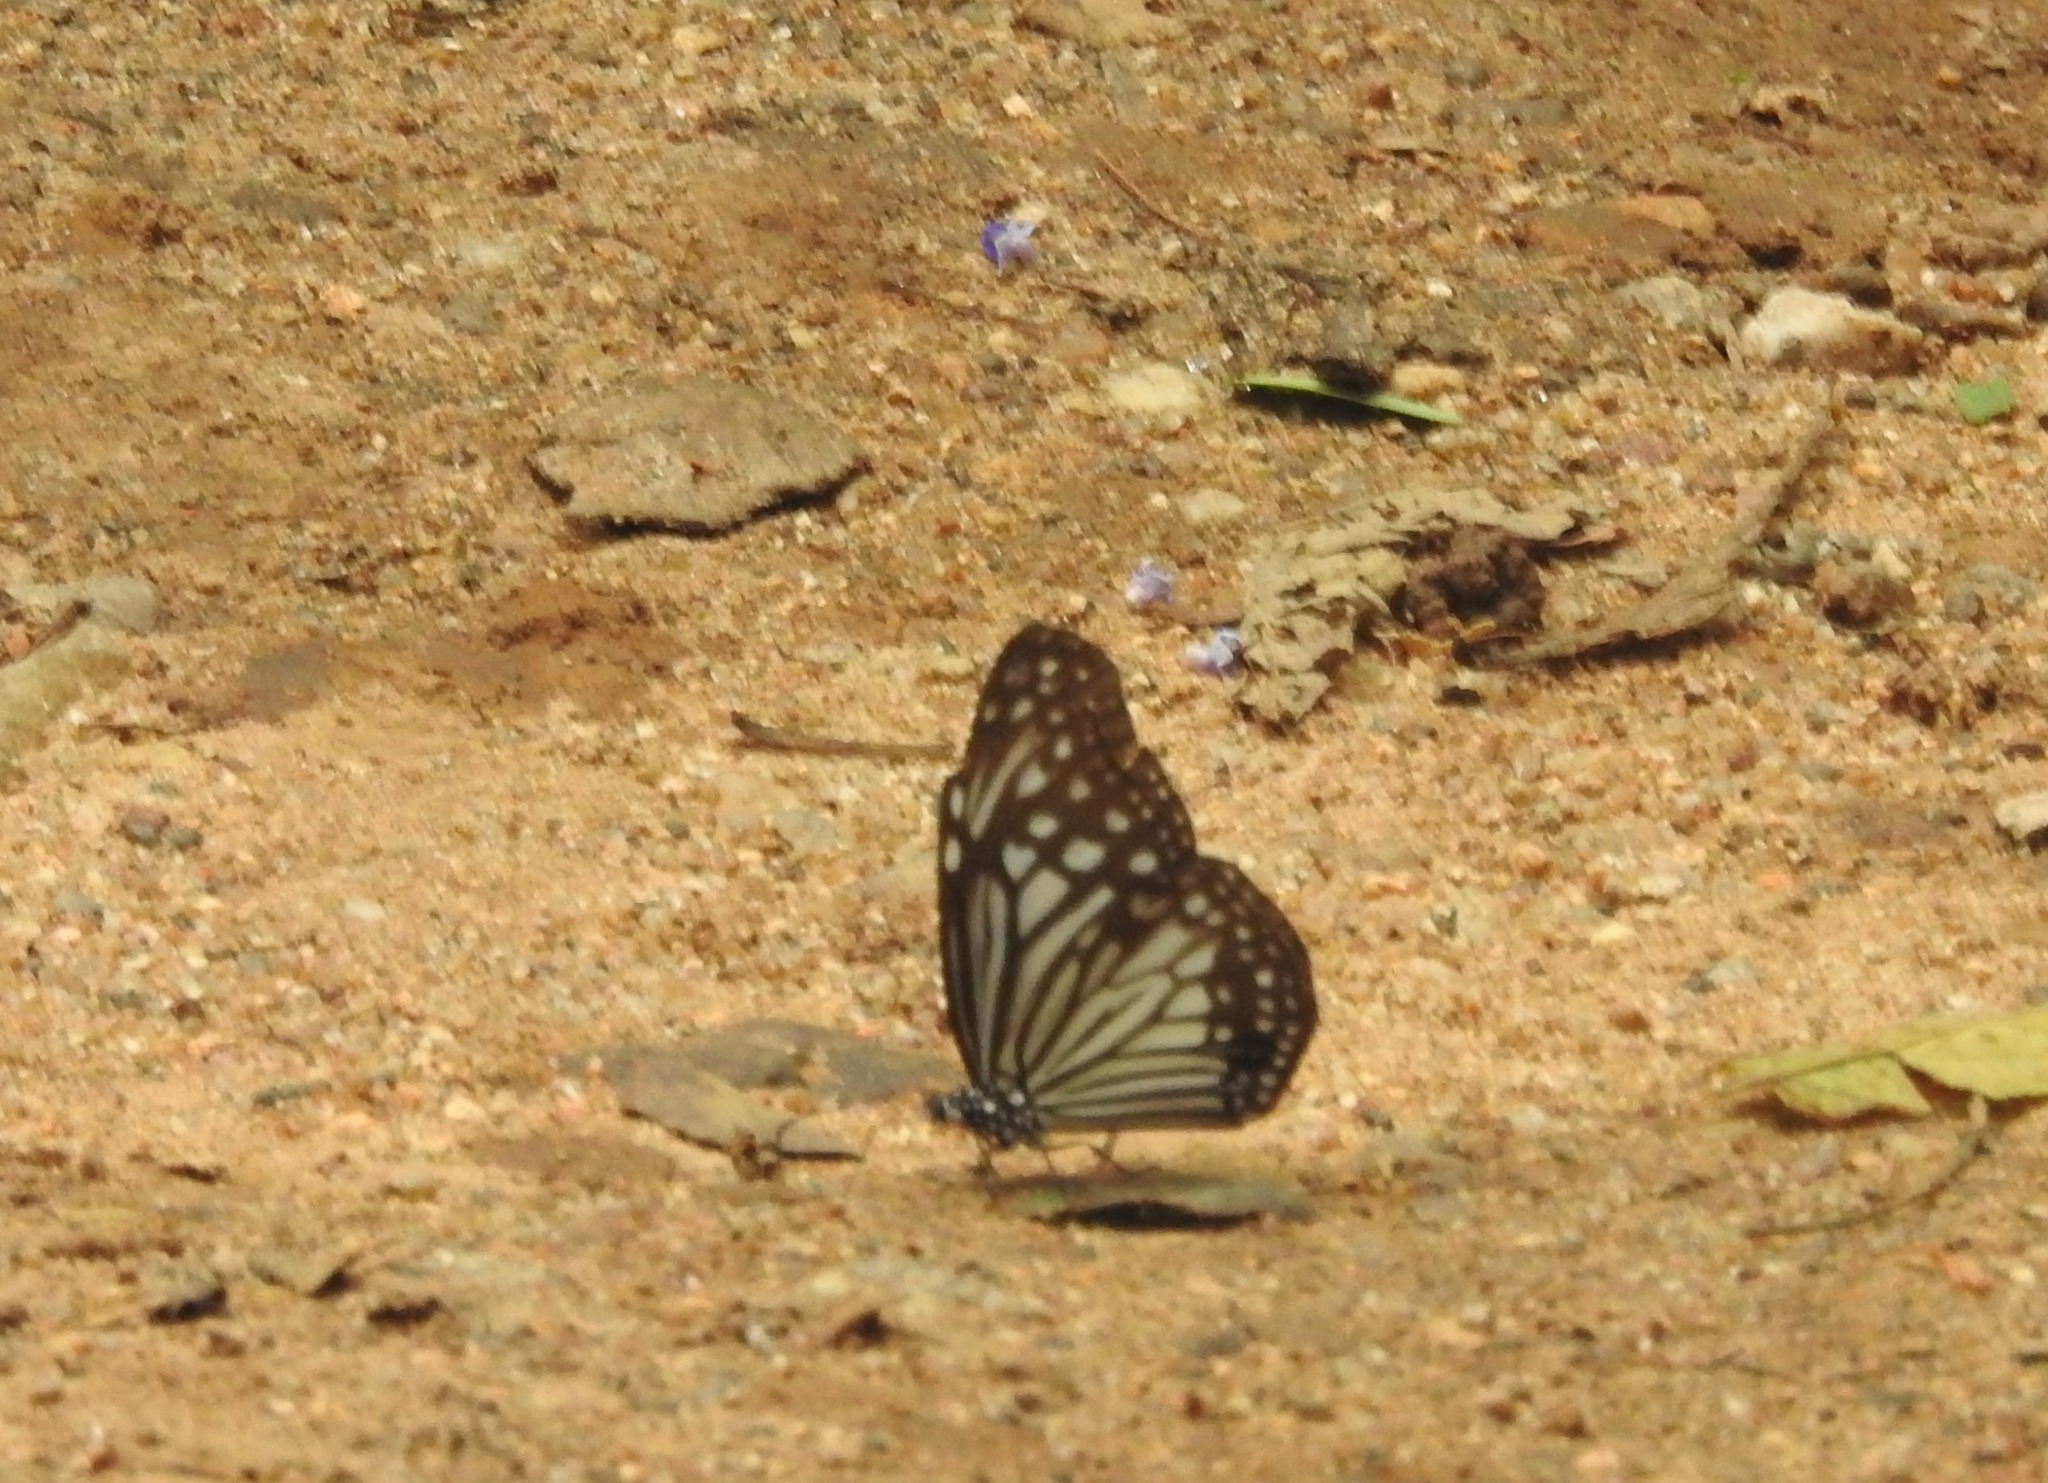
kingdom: Animalia
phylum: Arthropoda
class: Insecta
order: Lepidoptera
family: Nymphalidae
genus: Parantica
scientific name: Parantica aglea
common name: Glassy tiger
